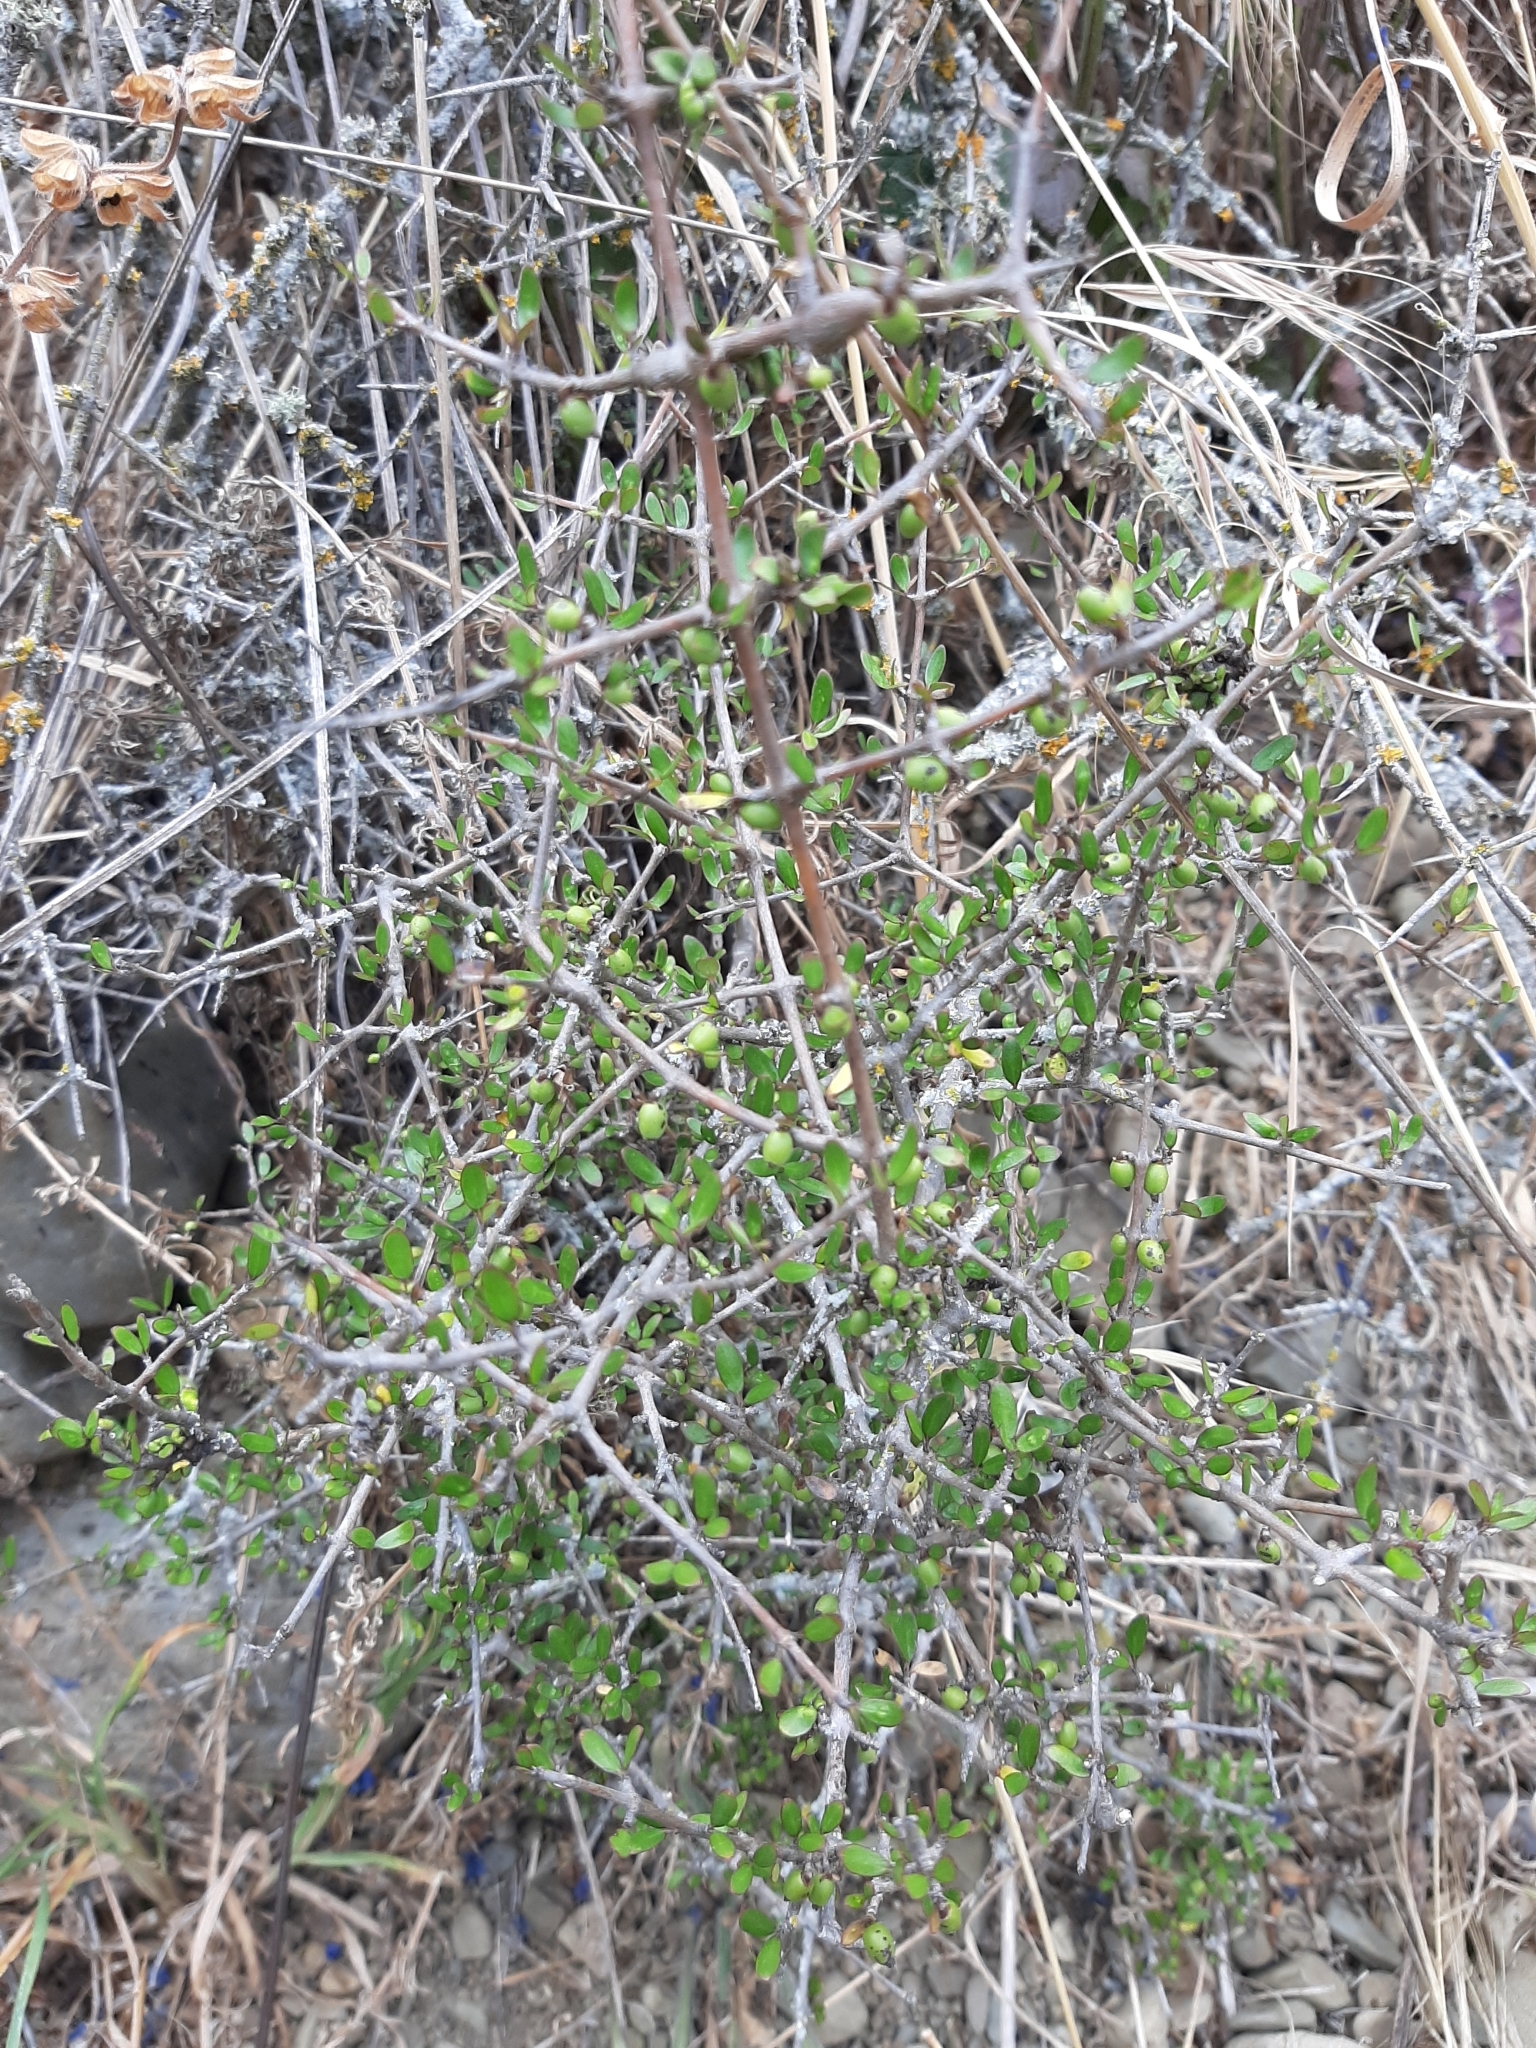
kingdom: Plantae
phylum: Tracheophyta
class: Magnoliopsida
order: Gentianales
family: Rubiaceae
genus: Coprosma
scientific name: Coprosma propinqua
